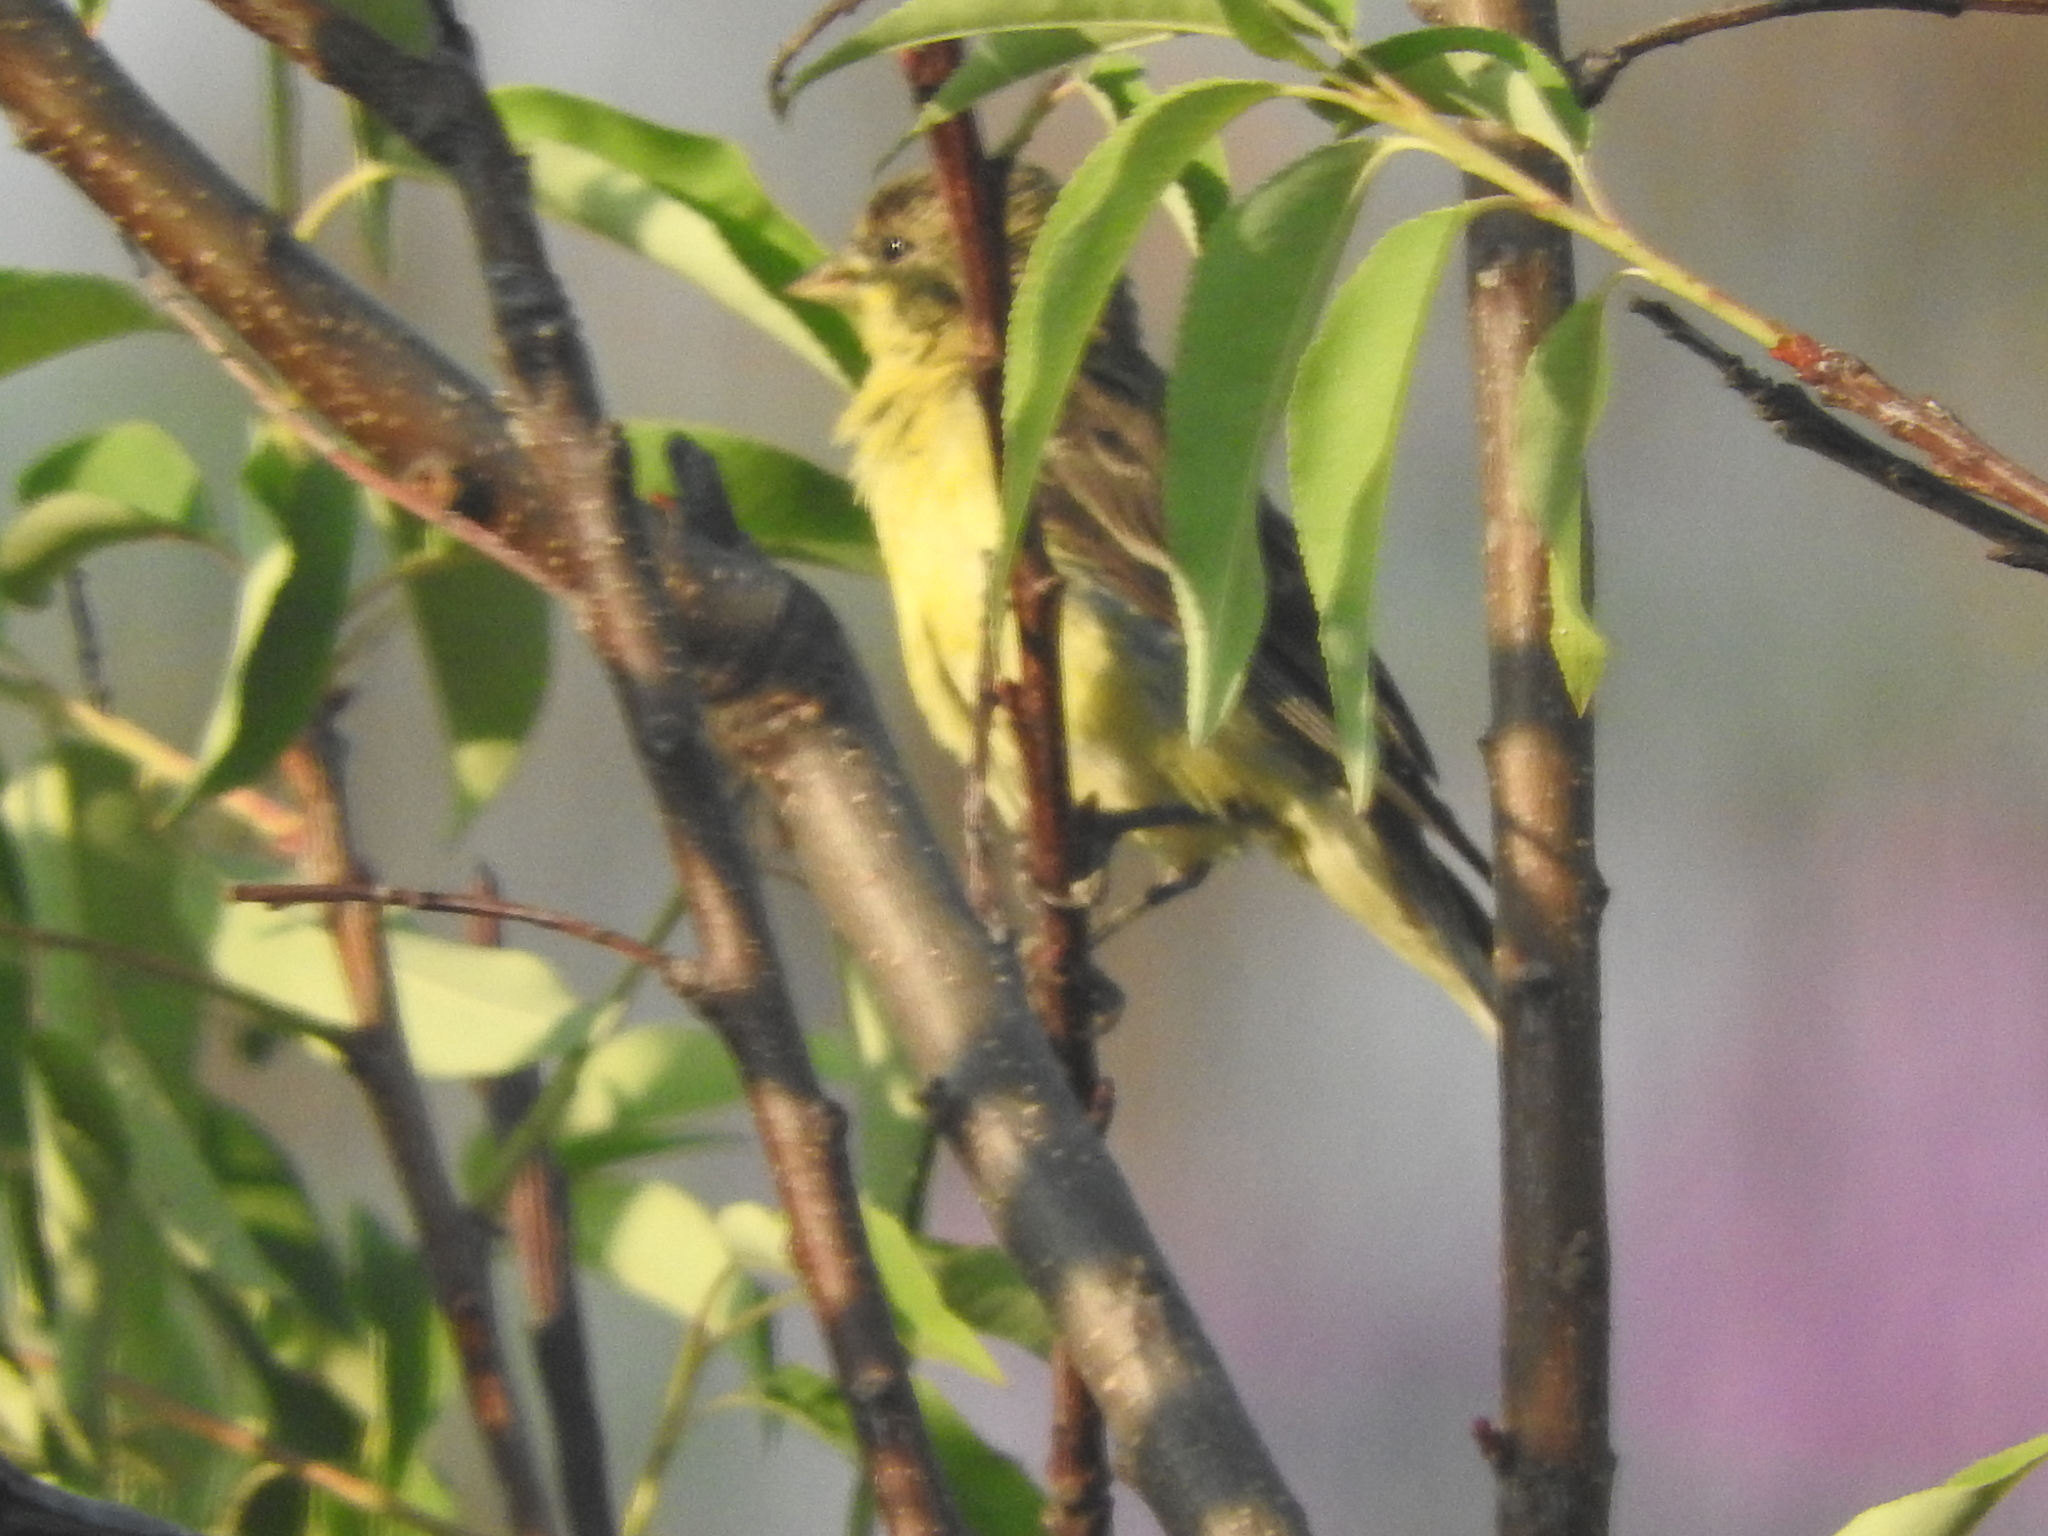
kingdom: Animalia
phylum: Chordata
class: Aves
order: Passeriformes
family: Fringillidae
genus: Spinus
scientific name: Spinus psaltria
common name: Lesser goldfinch
